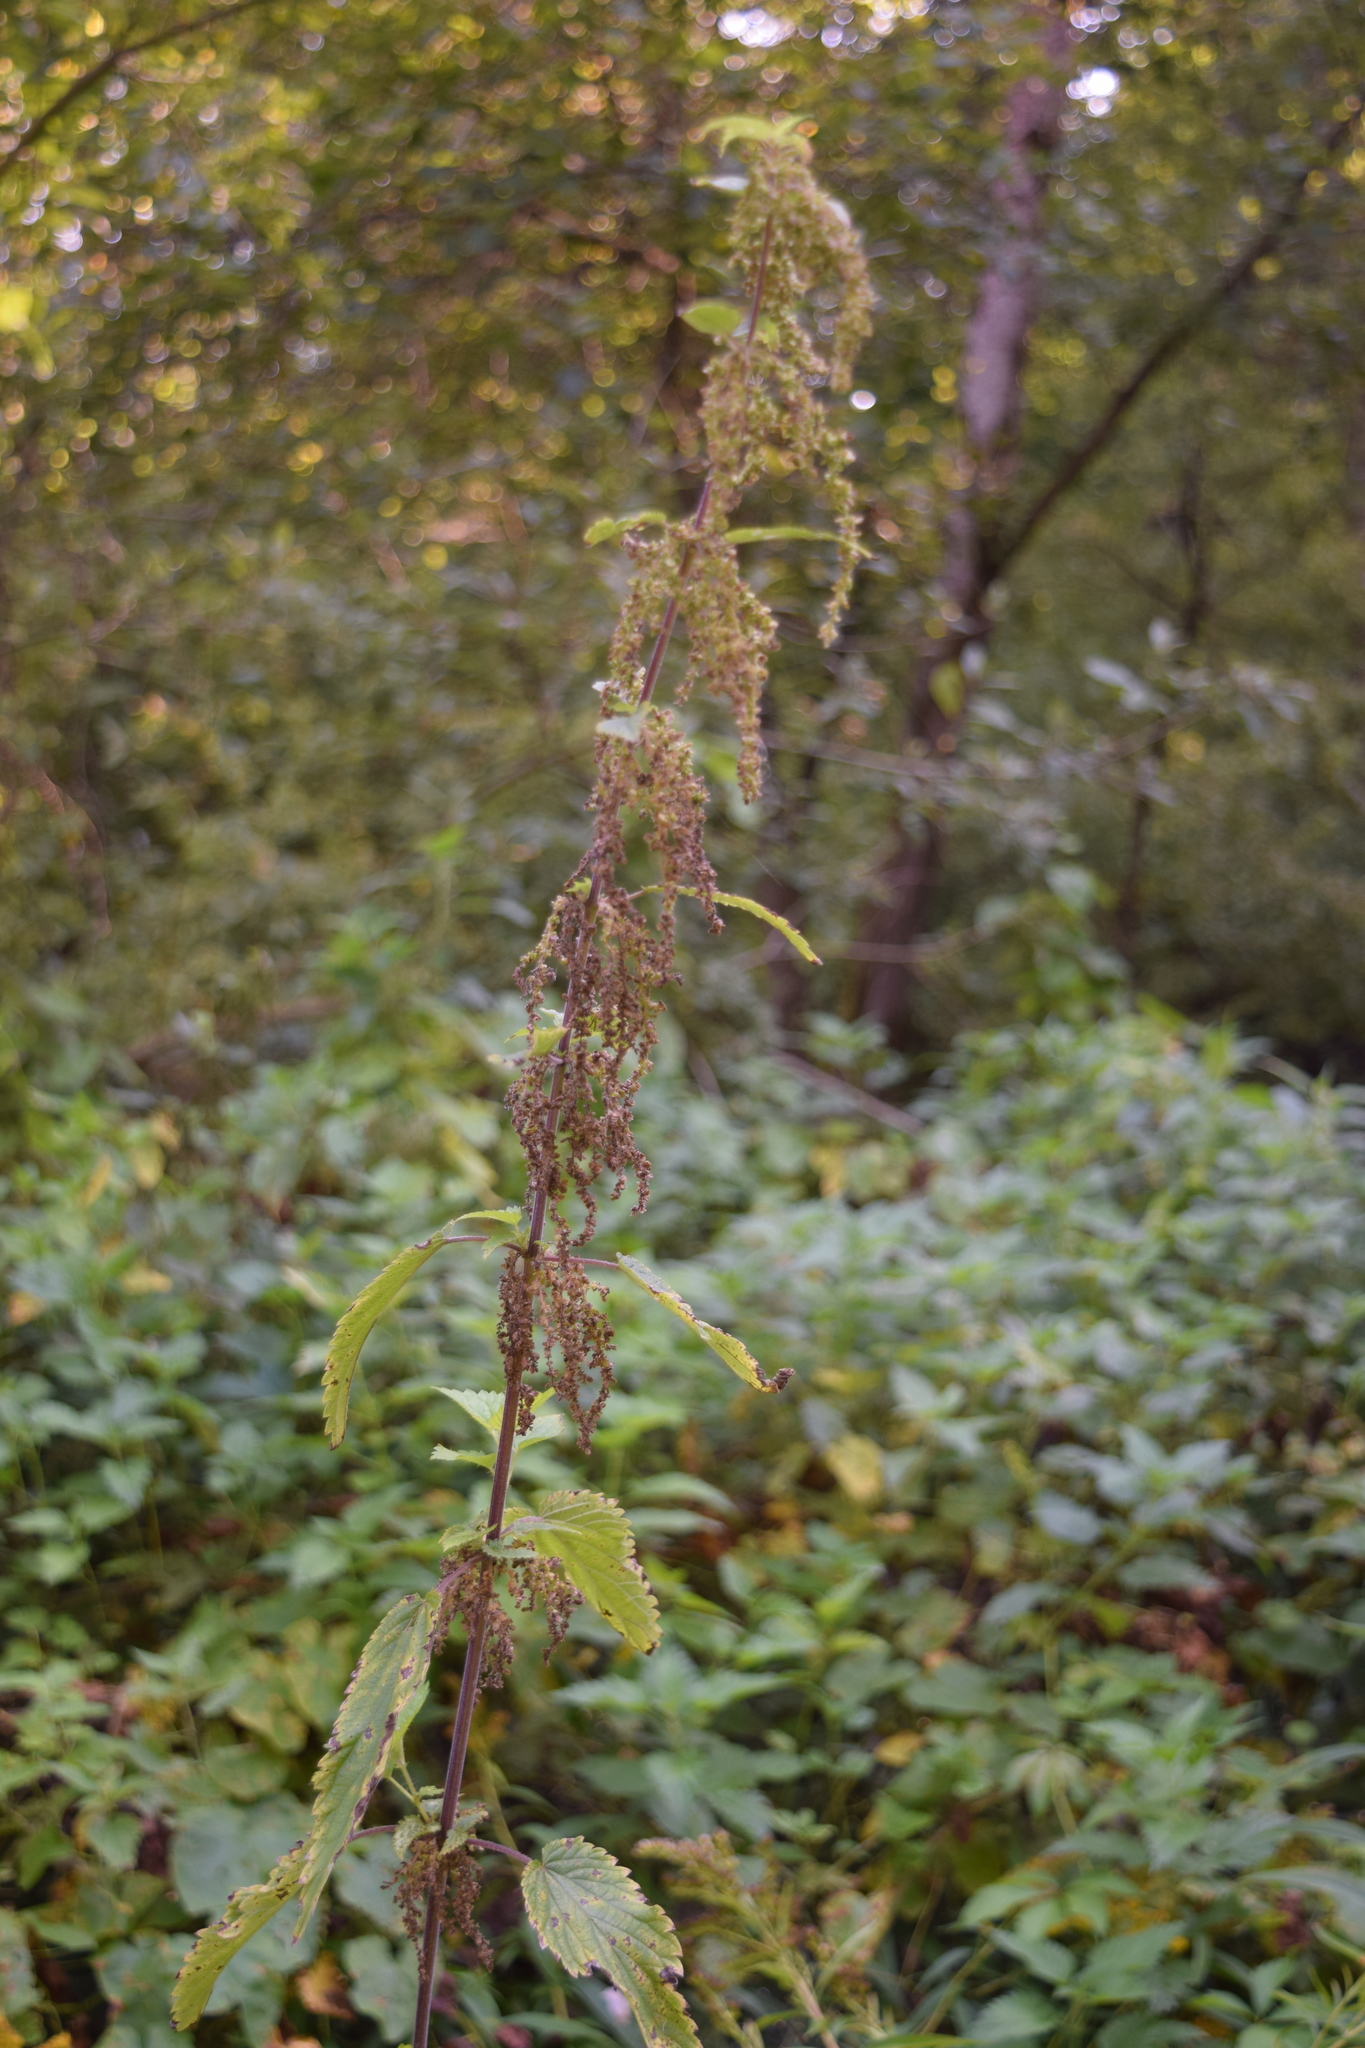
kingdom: Plantae
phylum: Tracheophyta
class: Magnoliopsida
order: Rosales
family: Urticaceae
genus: Urtica
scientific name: Urtica dioica
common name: Common nettle
